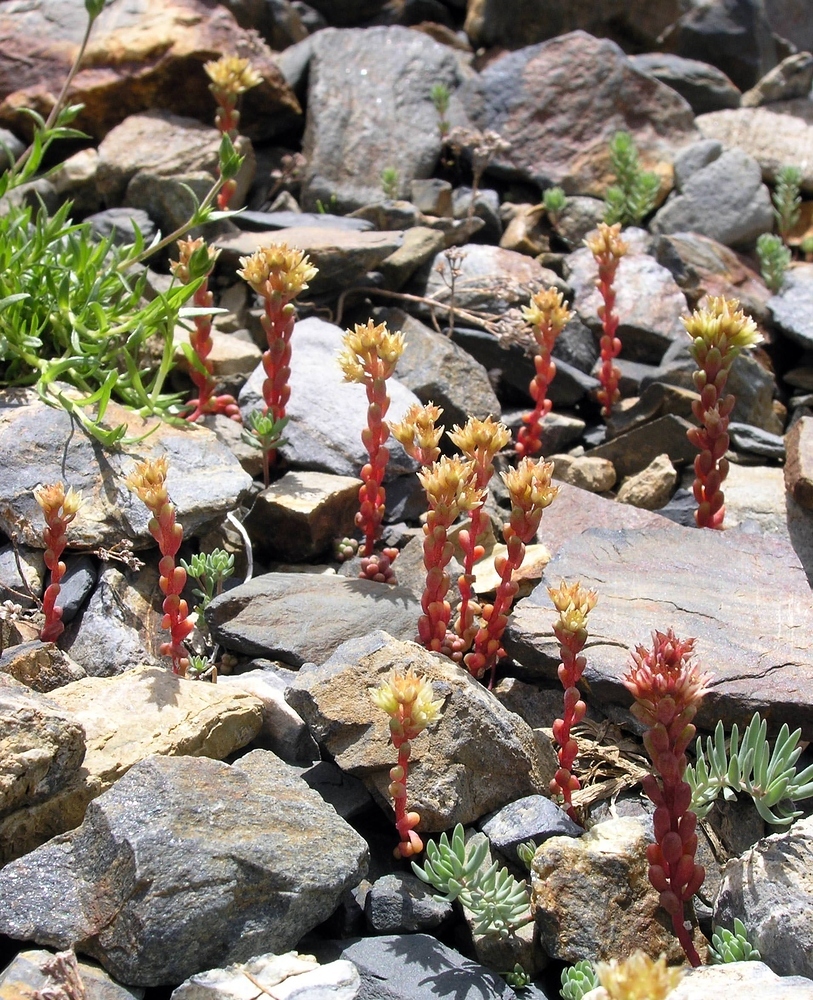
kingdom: Plantae
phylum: Tracheophyta
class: Magnoliopsida
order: Saxifragales
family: Crassulaceae
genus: Sedum
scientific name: Sedum atratum
